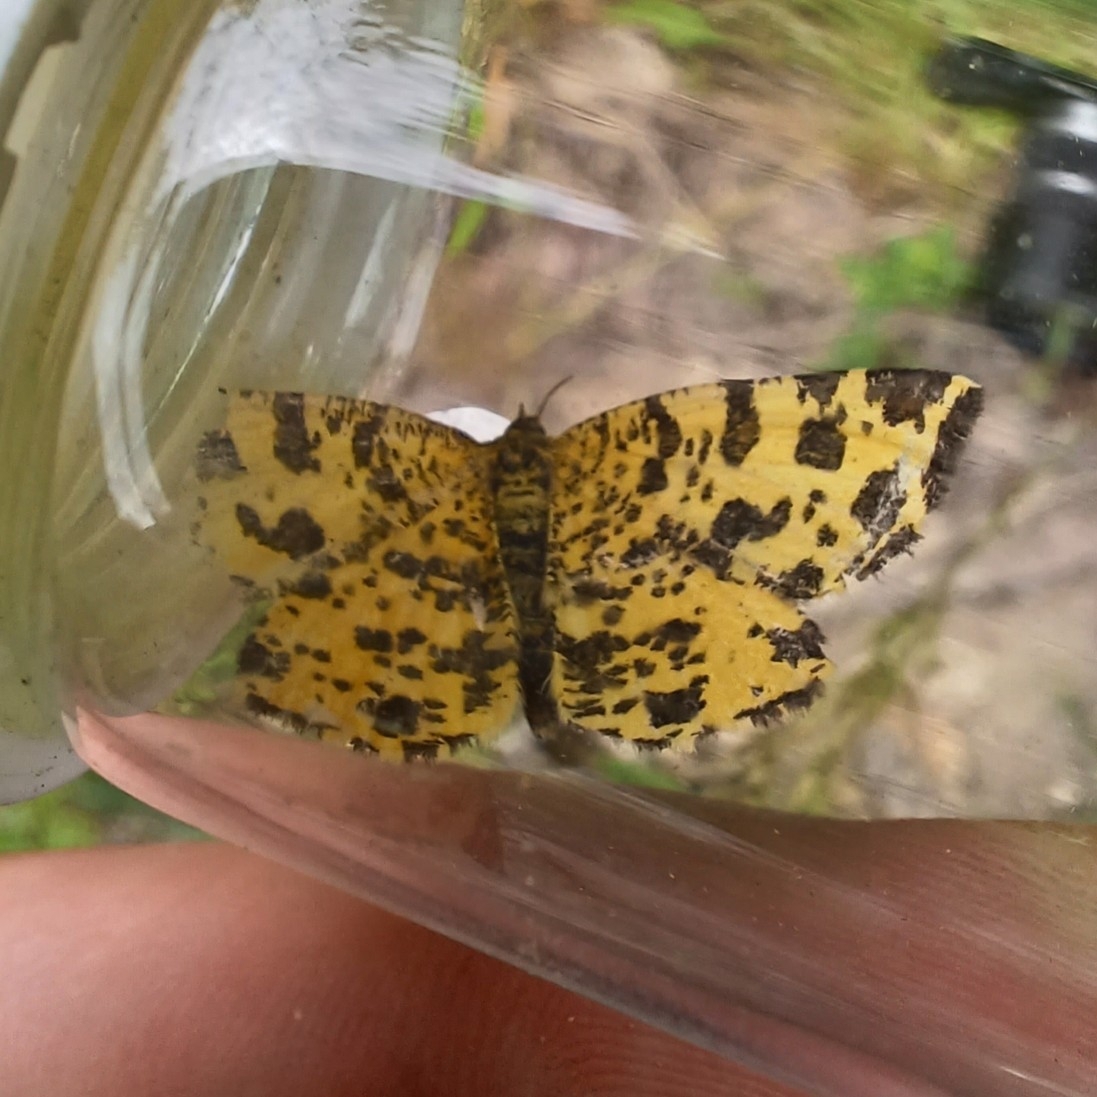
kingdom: Animalia
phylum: Arthropoda
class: Insecta
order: Lepidoptera
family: Geometridae
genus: Pseudopanthera
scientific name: Pseudopanthera macularia
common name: Speckled yellow
